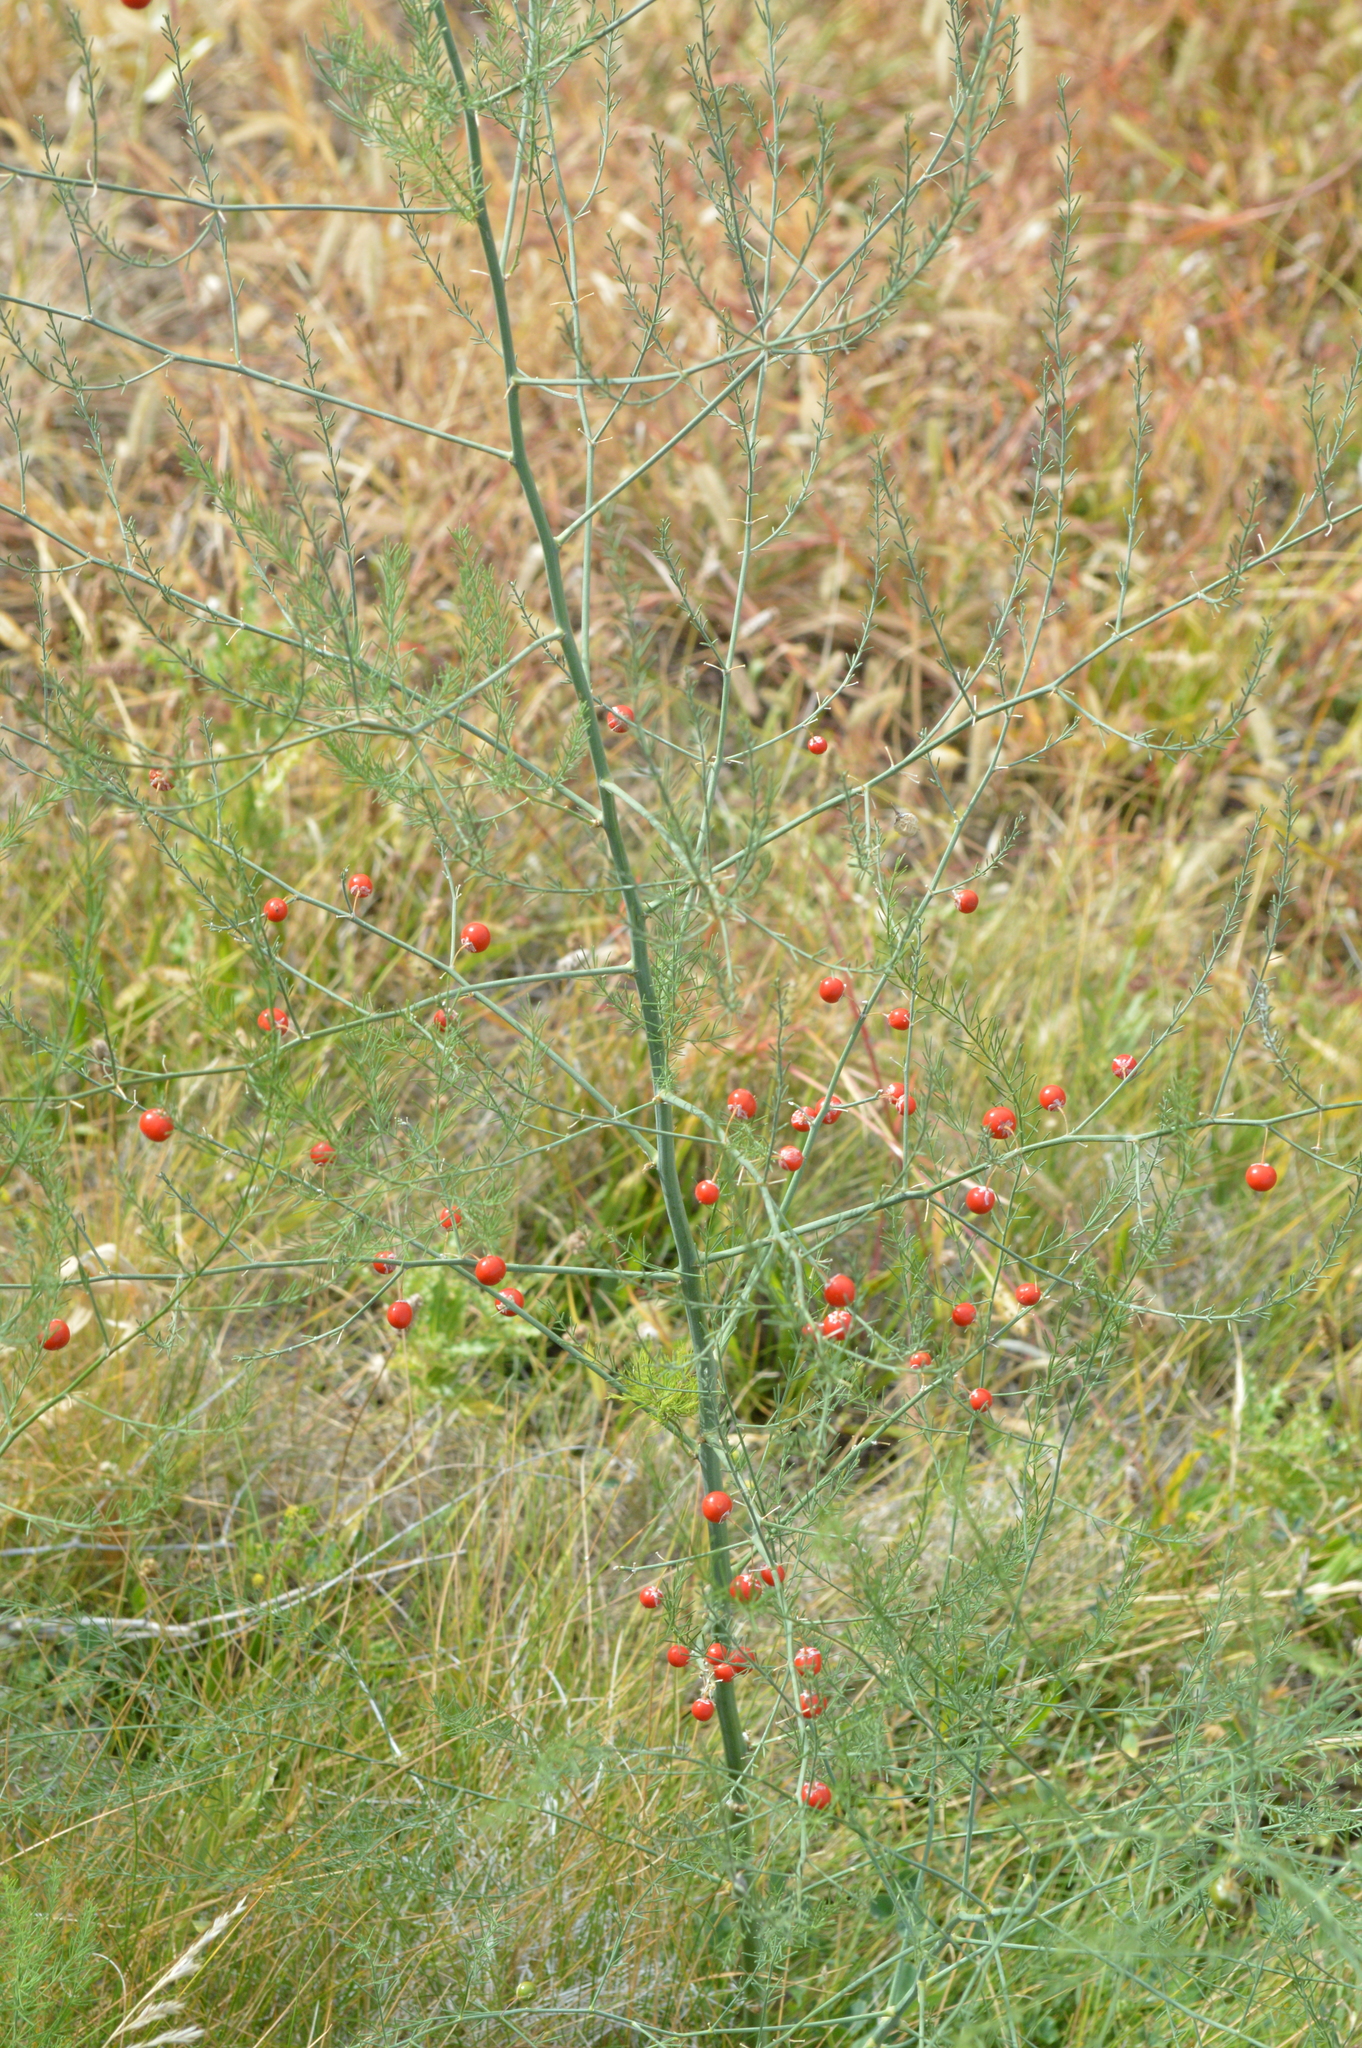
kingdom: Plantae
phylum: Tracheophyta
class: Liliopsida
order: Asparagales
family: Asparagaceae
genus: Asparagus
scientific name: Asparagus officinalis
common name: Garden asparagus
